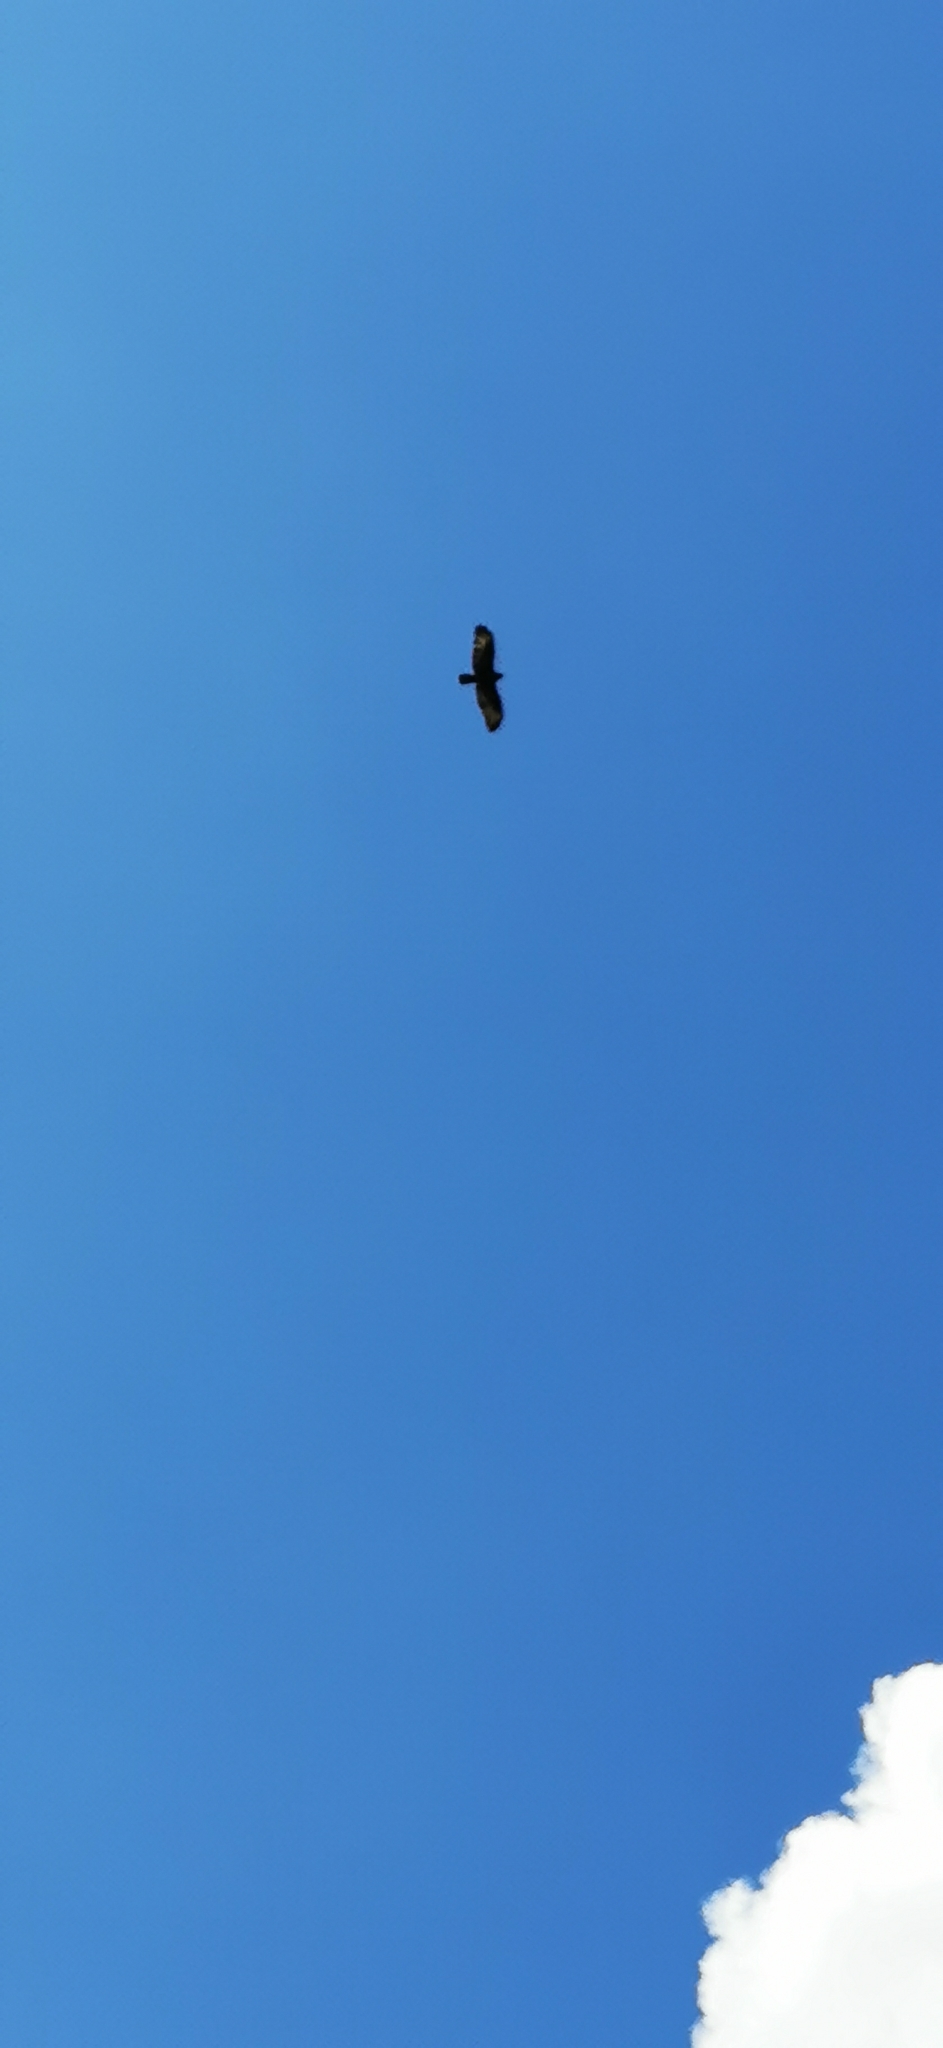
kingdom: Animalia
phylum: Chordata
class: Aves
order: Accipitriformes
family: Accipitridae
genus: Buteo
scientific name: Buteo buteo
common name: Common buzzard
